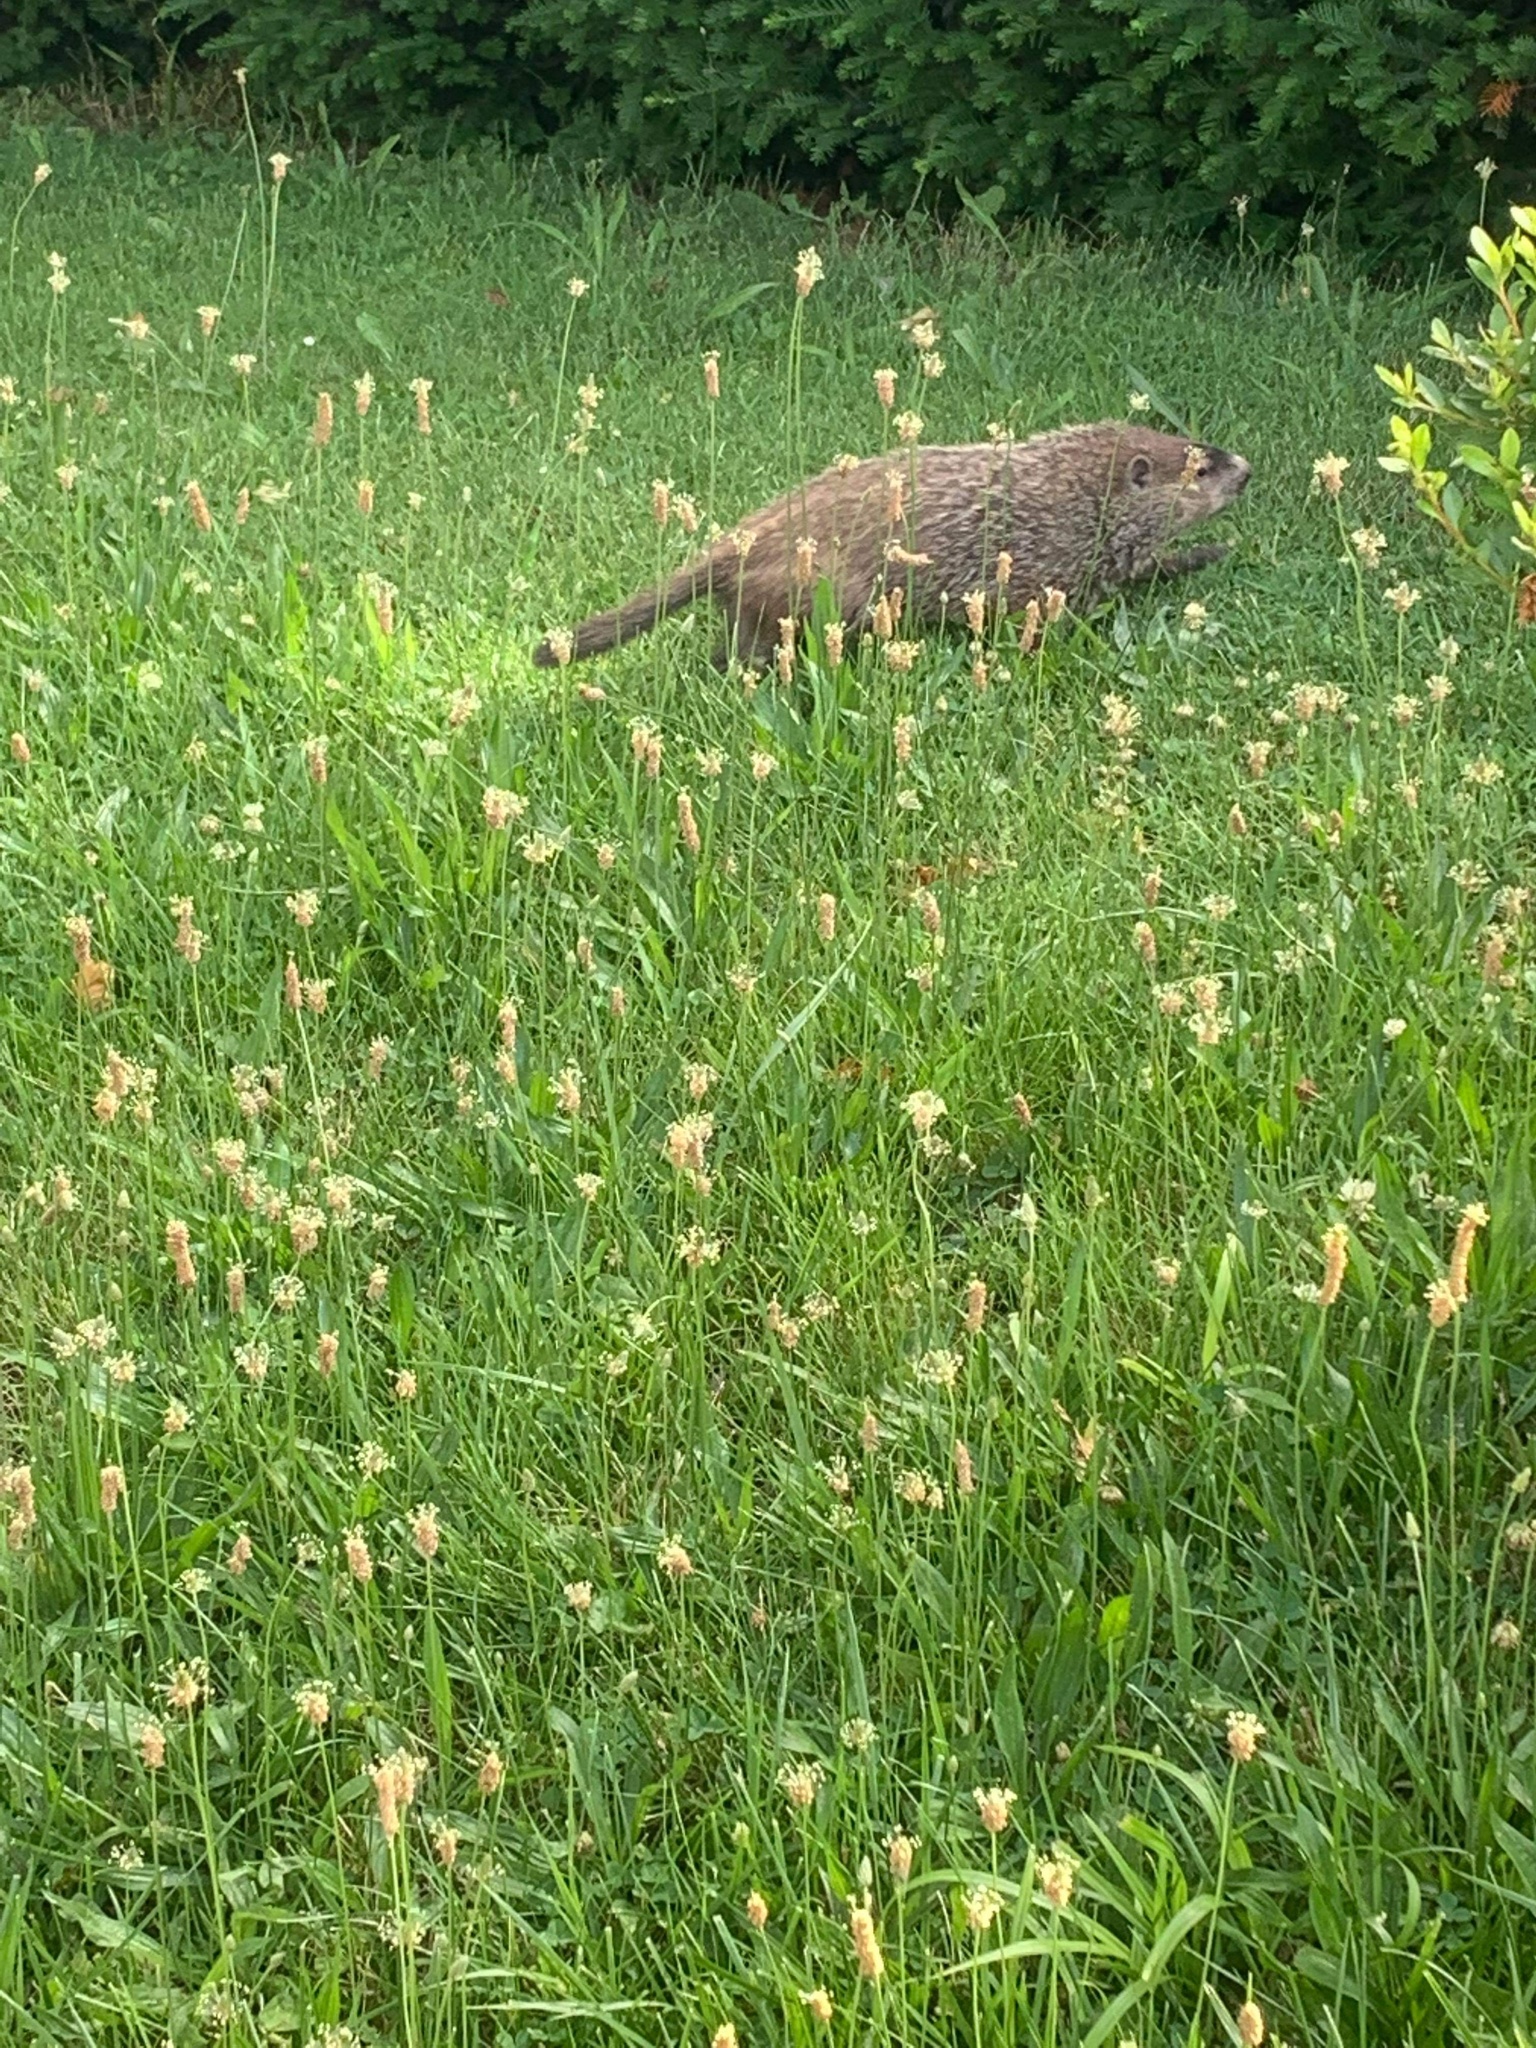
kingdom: Animalia
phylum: Chordata
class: Mammalia
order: Rodentia
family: Sciuridae
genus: Marmota
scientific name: Marmota monax
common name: Groundhog
